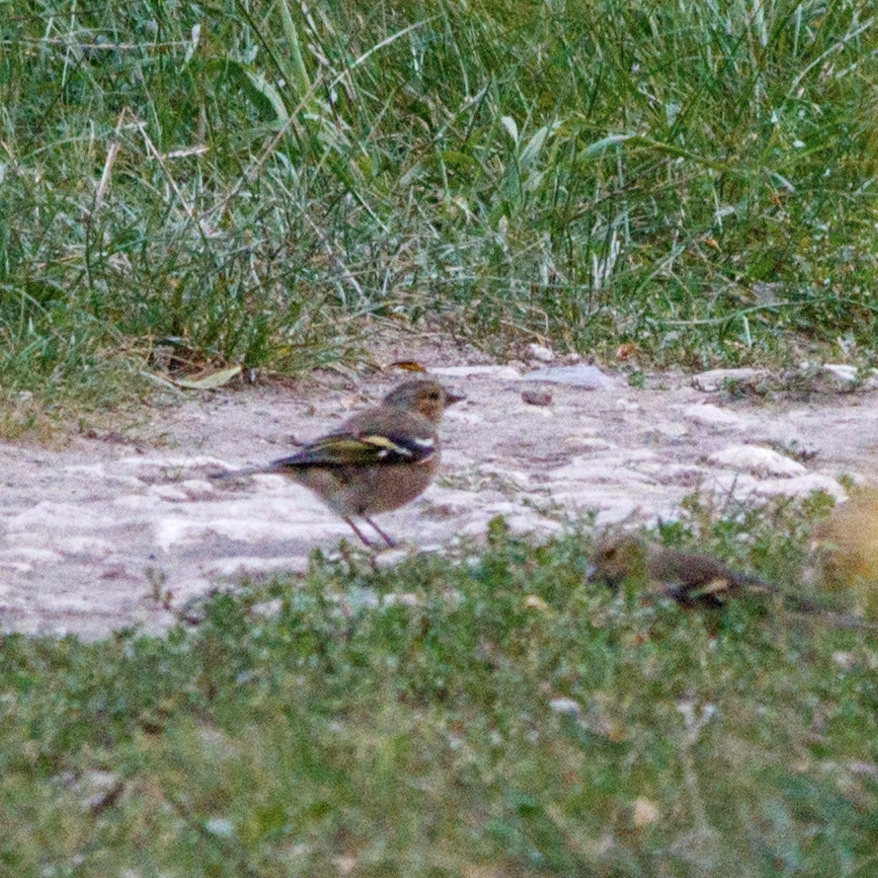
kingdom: Animalia
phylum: Chordata
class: Aves
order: Passeriformes
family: Fringillidae
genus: Fringilla
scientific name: Fringilla coelebs
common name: Common chaffinch
